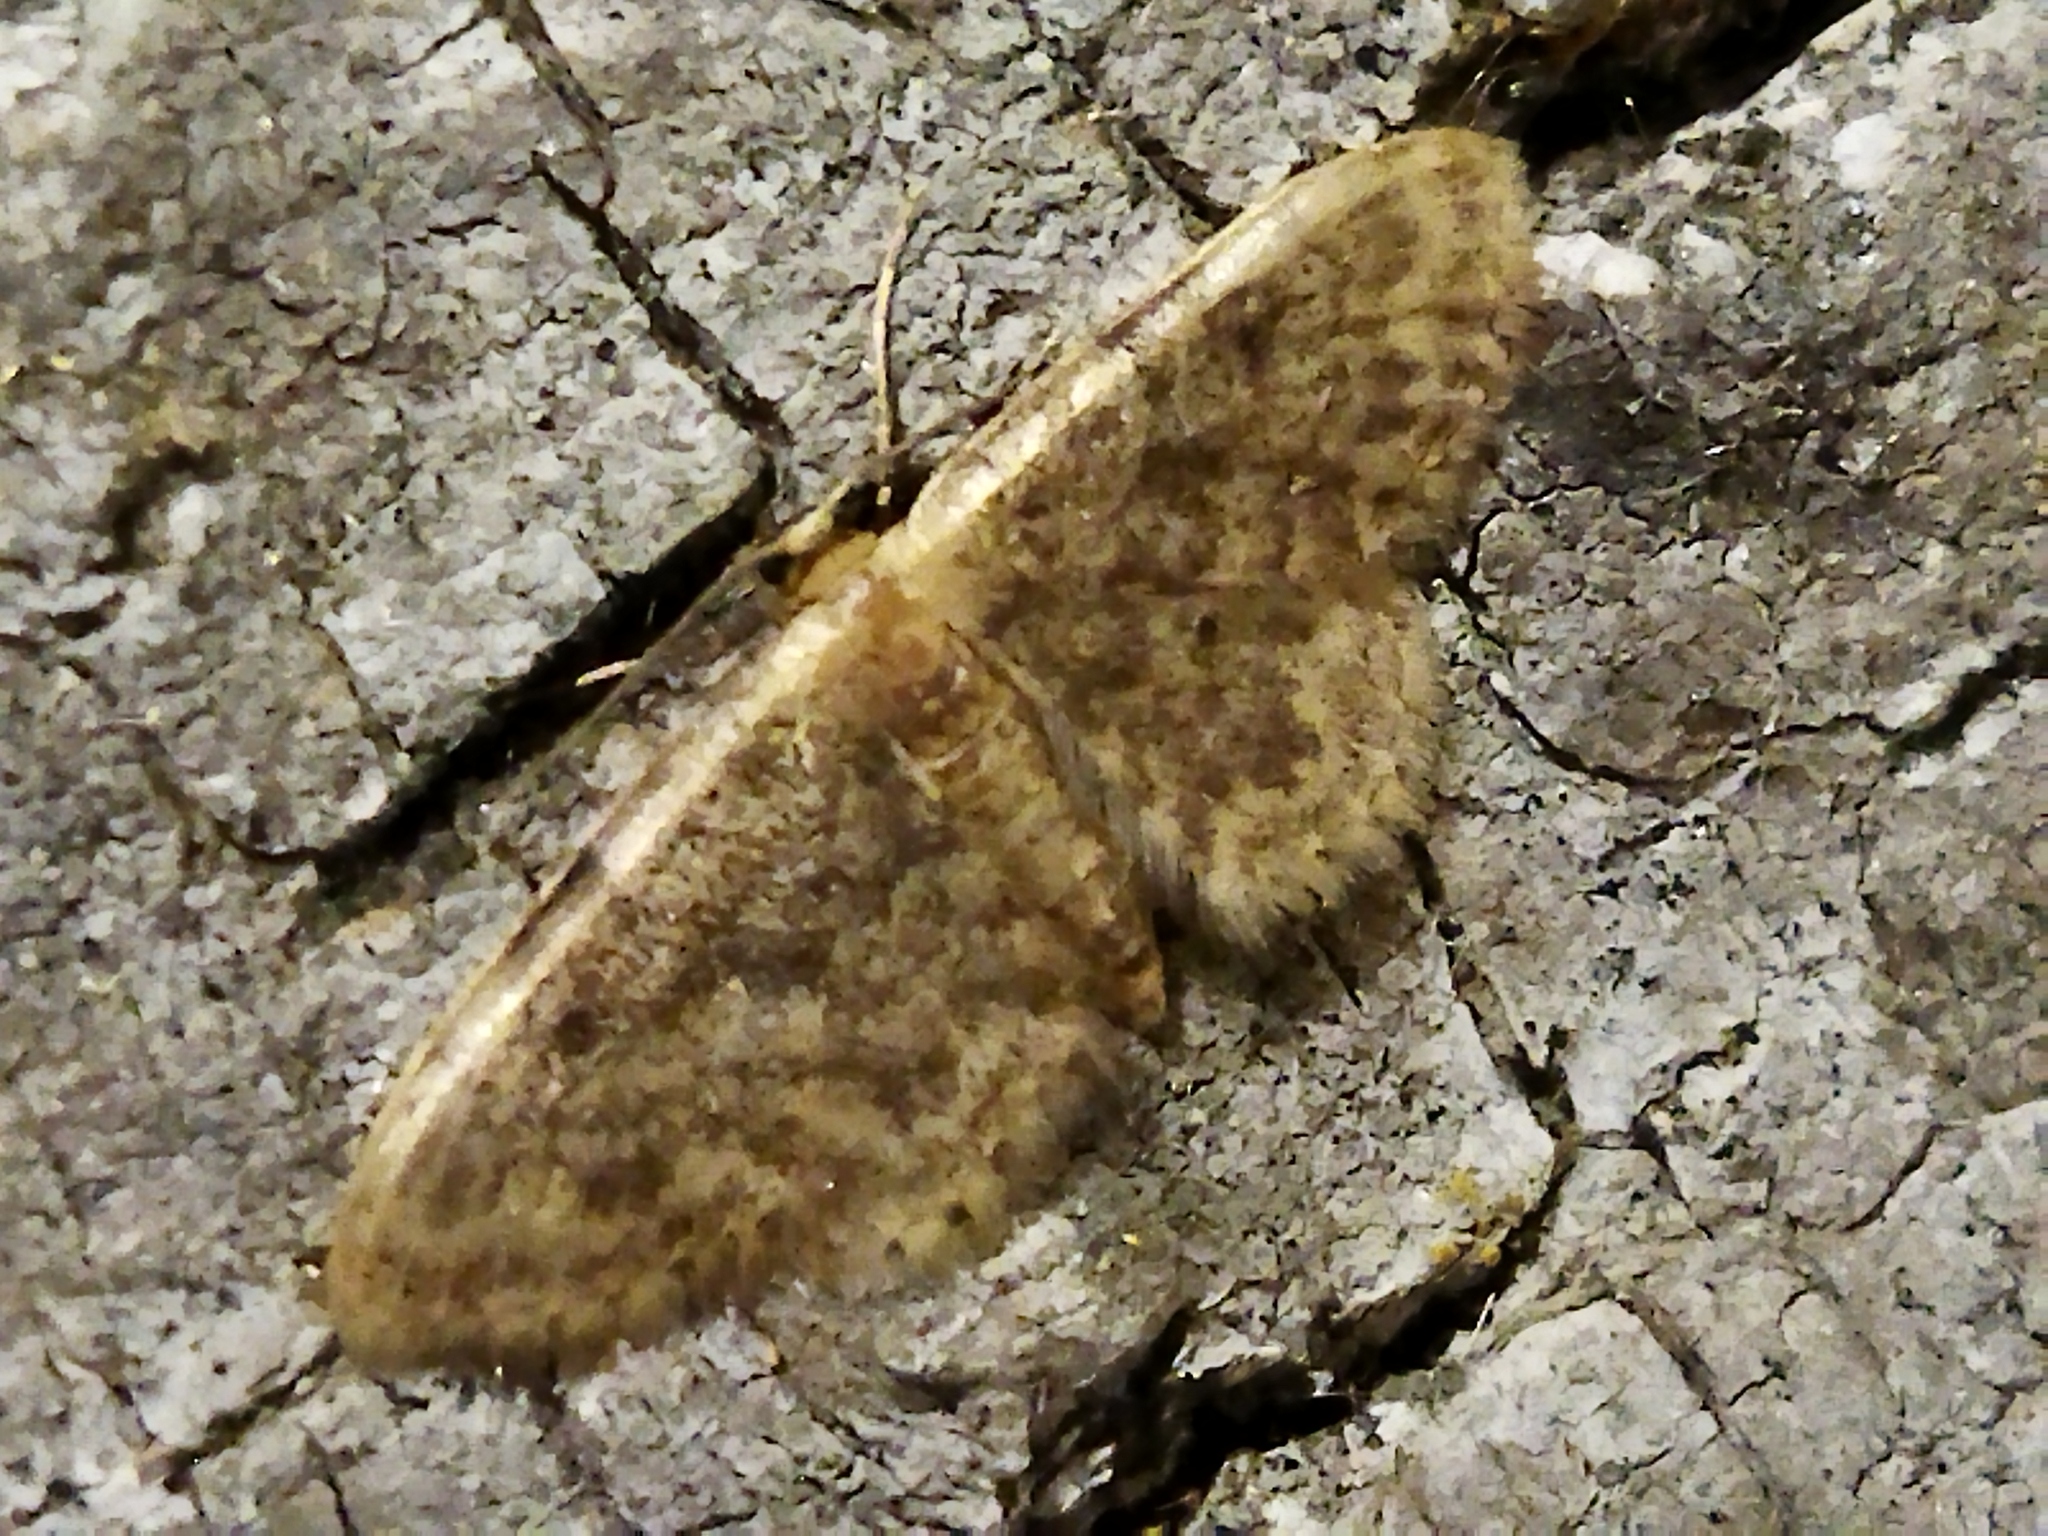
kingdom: Animalia
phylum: Arthropoda
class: Insecta
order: Lepidoptera
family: Geometridae
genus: Idaea
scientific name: Idaea inquinata
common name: Rusty wave
